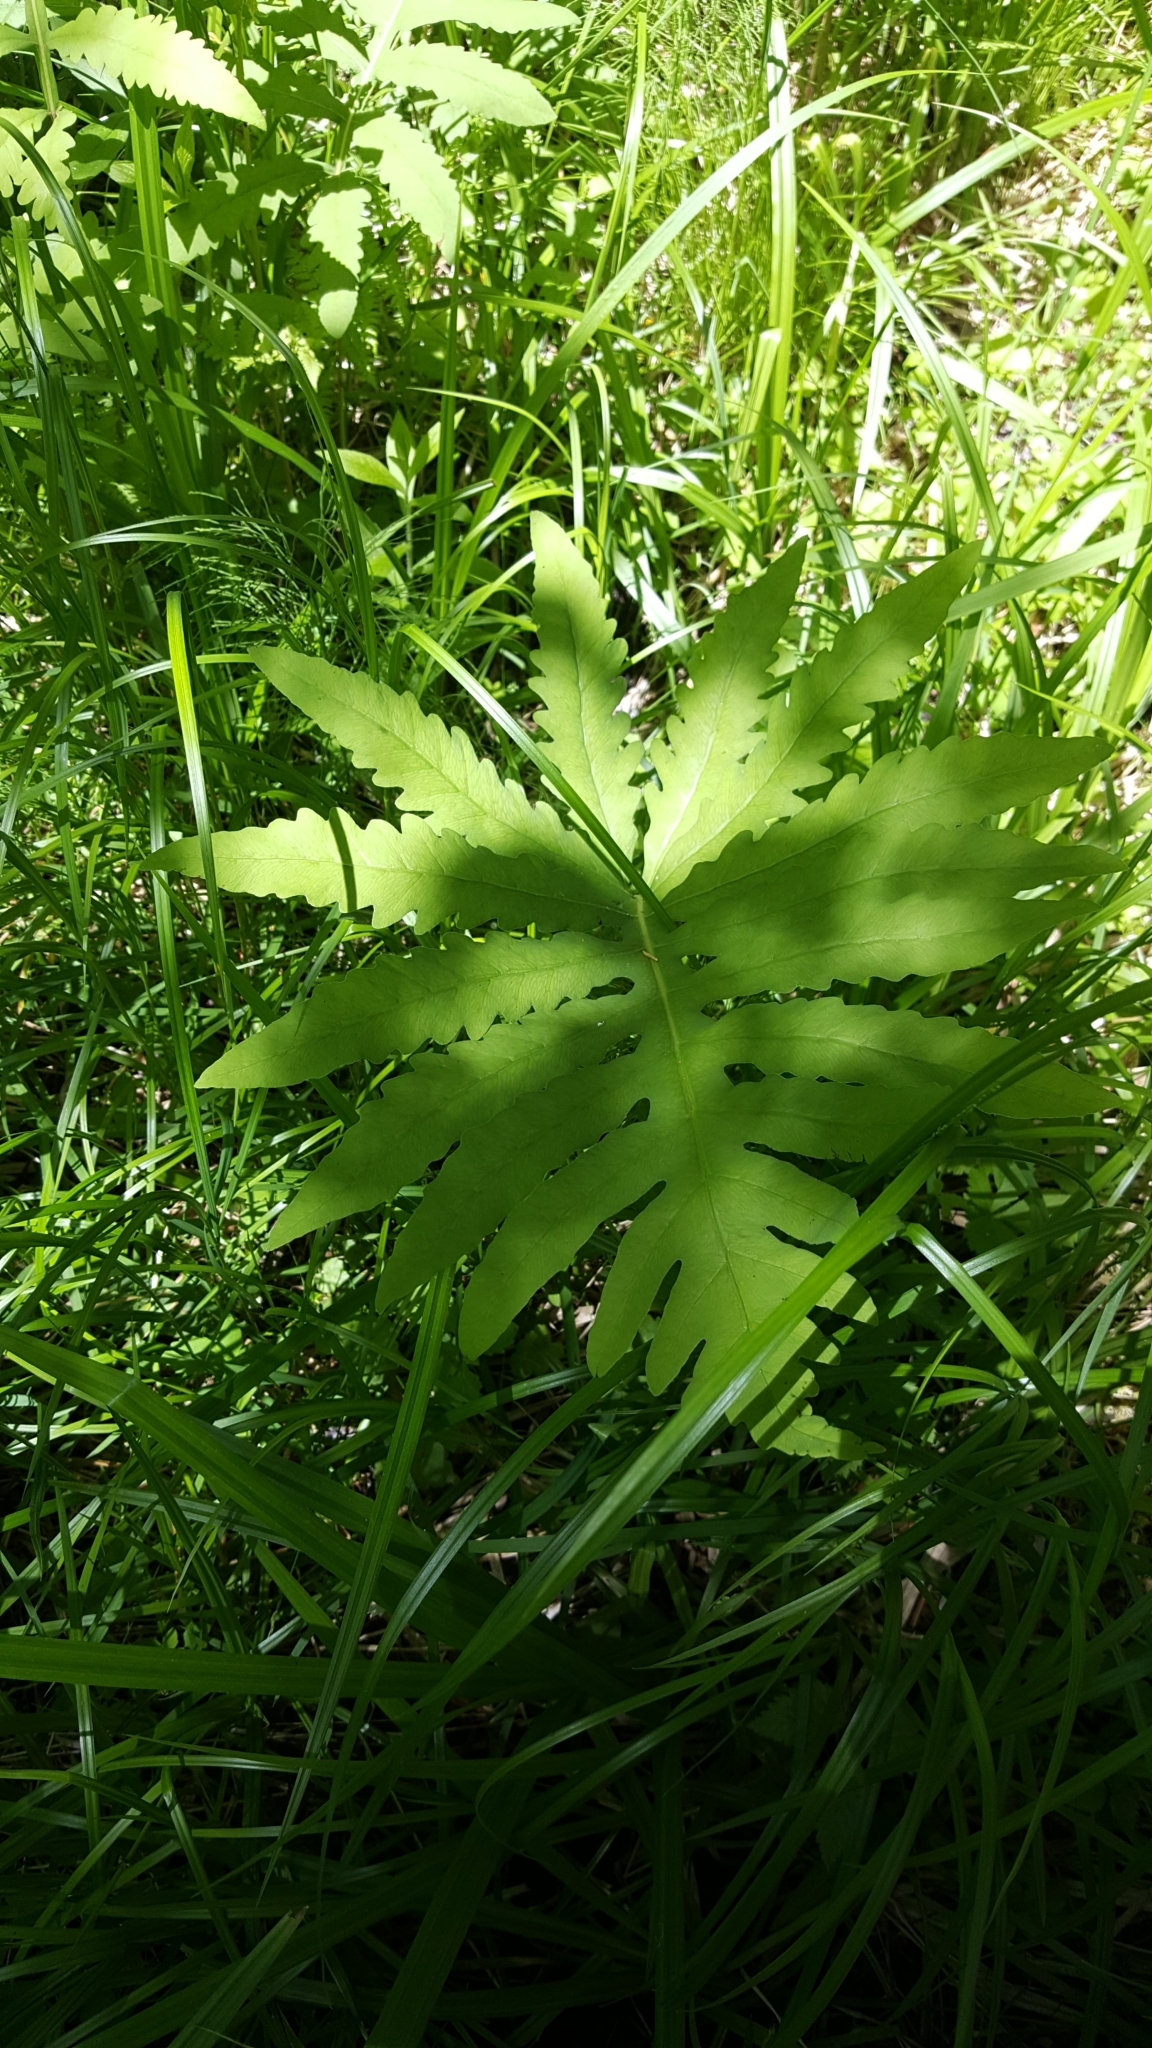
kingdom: Plantae
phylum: Tracheophyta
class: Polypodiopsida
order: Polypodiales
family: Onocleaceae
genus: Onoclea
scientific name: Onoclea sensibilis
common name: Sensitive fern
